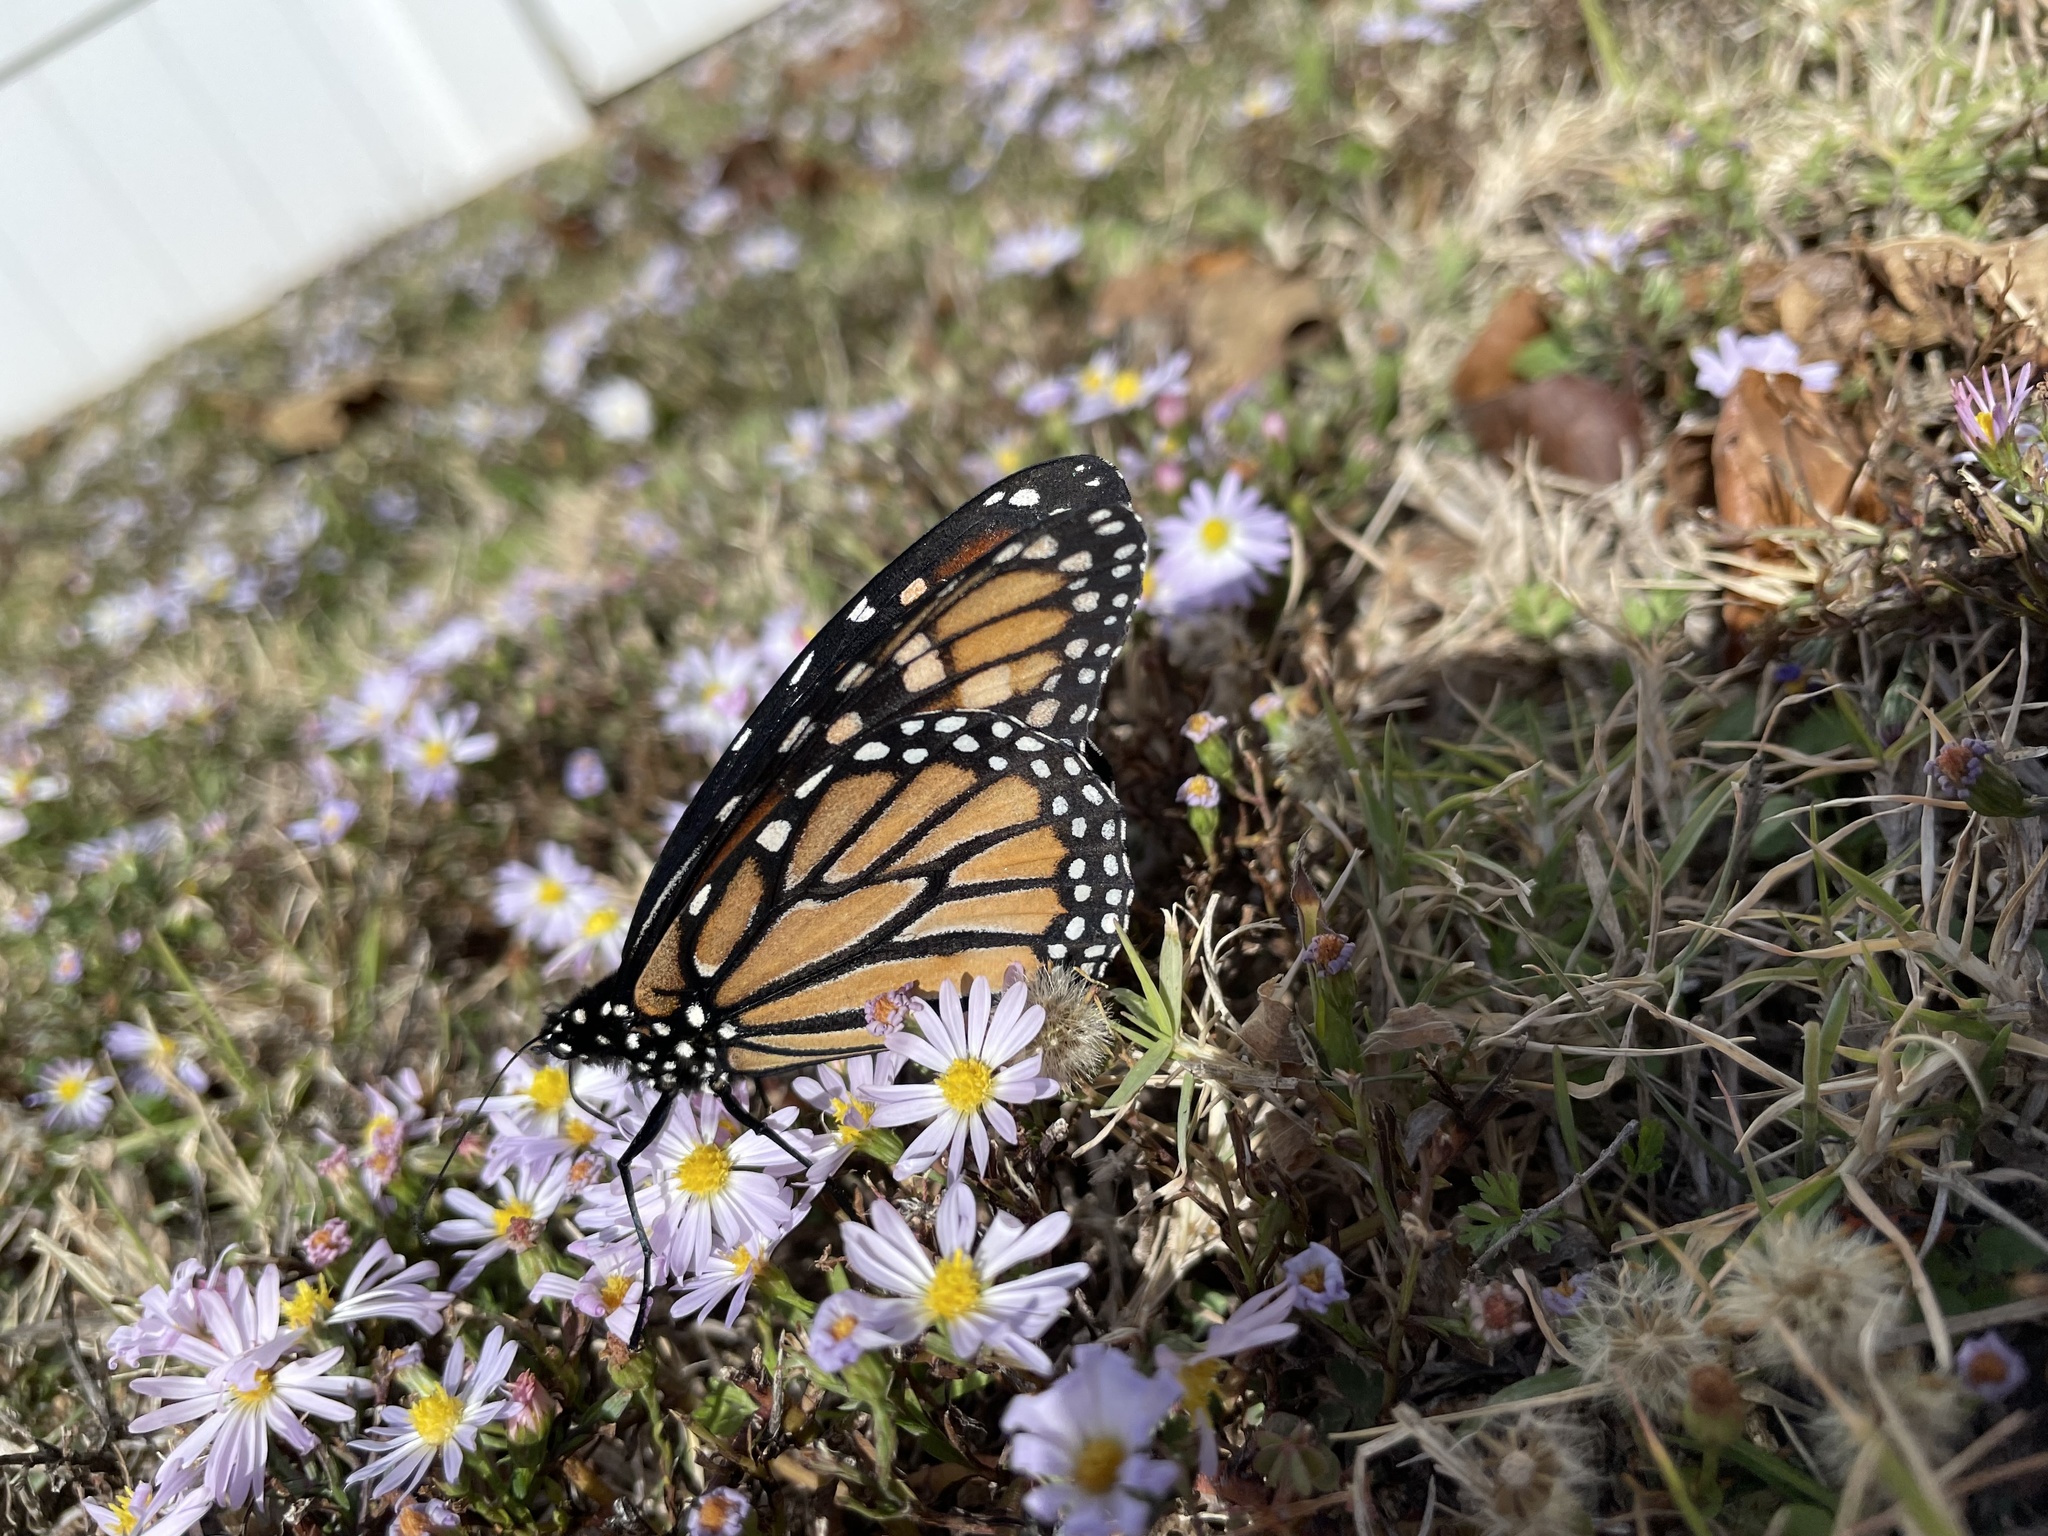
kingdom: Animalia
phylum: Arthropoda
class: Insecta
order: Lepidoptera
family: Nymphalidae
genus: Danaus
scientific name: Danaus plexippus
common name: Monarch
